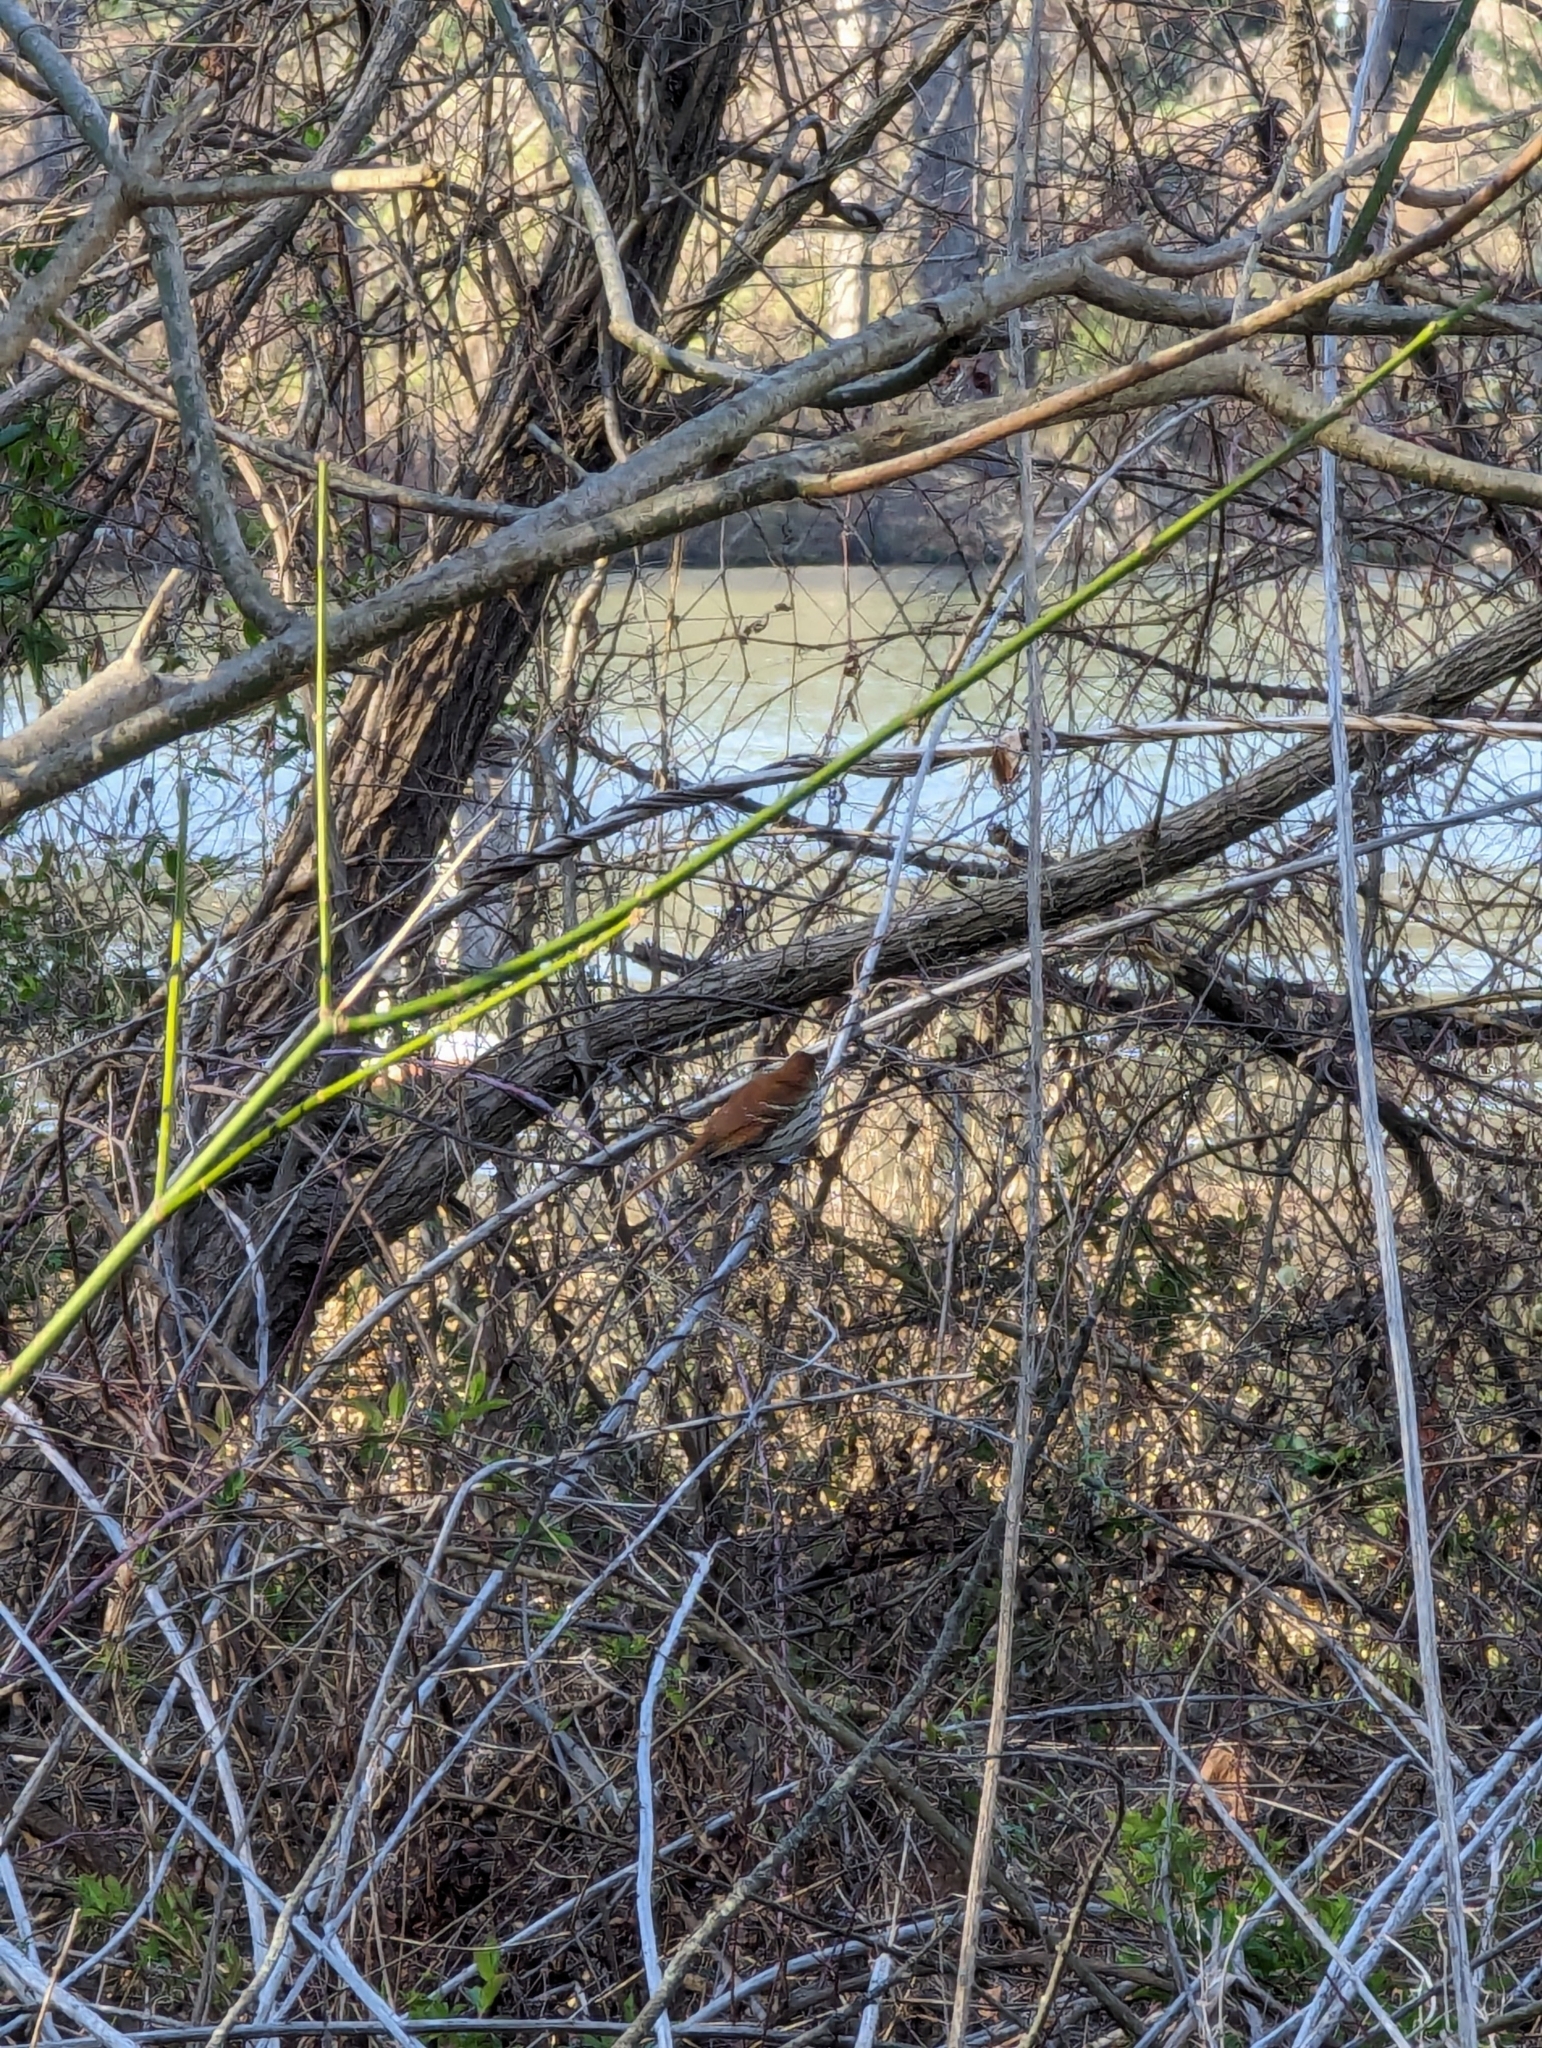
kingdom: Animalia
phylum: Chordata
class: Aves
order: Passeriformes
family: Mimidae
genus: Toxostoma
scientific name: Toxostoma rufum
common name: Brown thrasher
